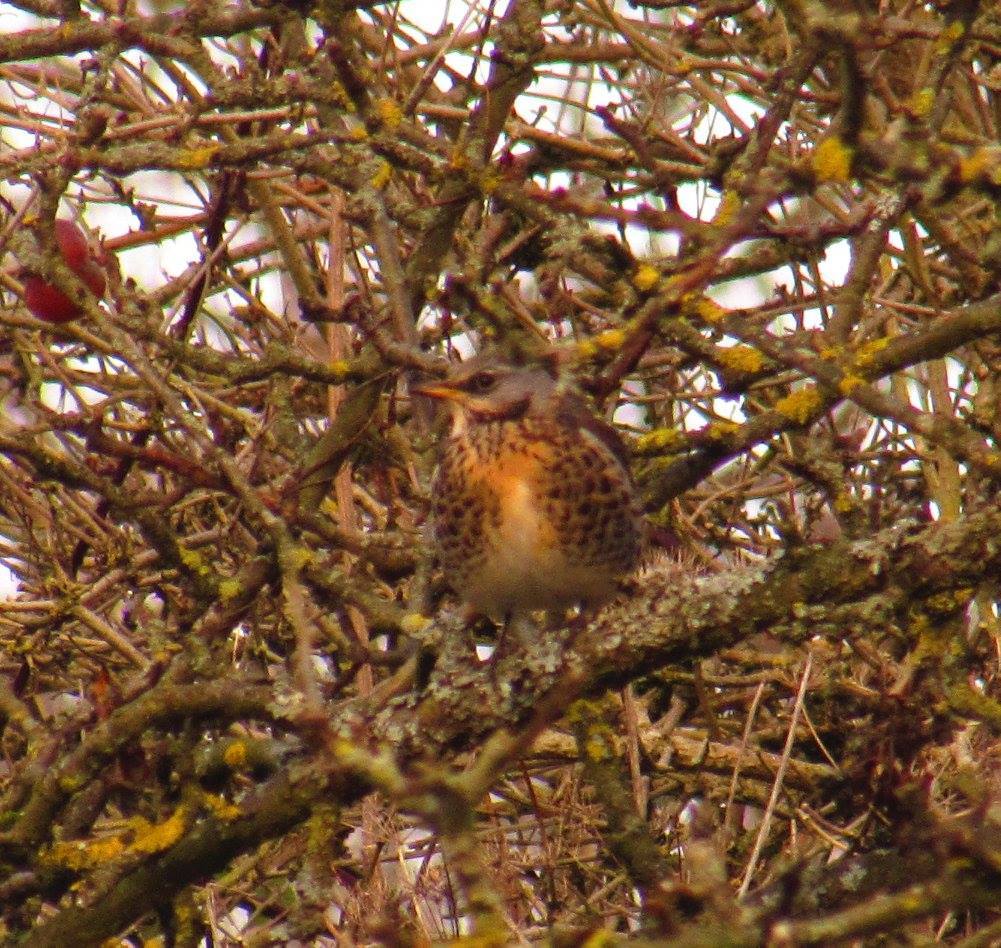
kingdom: Animalia
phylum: Chordata
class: Aves
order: Passeriformes
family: Turdidae
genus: Turdus
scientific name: Turdus pilaris
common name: Fieldfare
